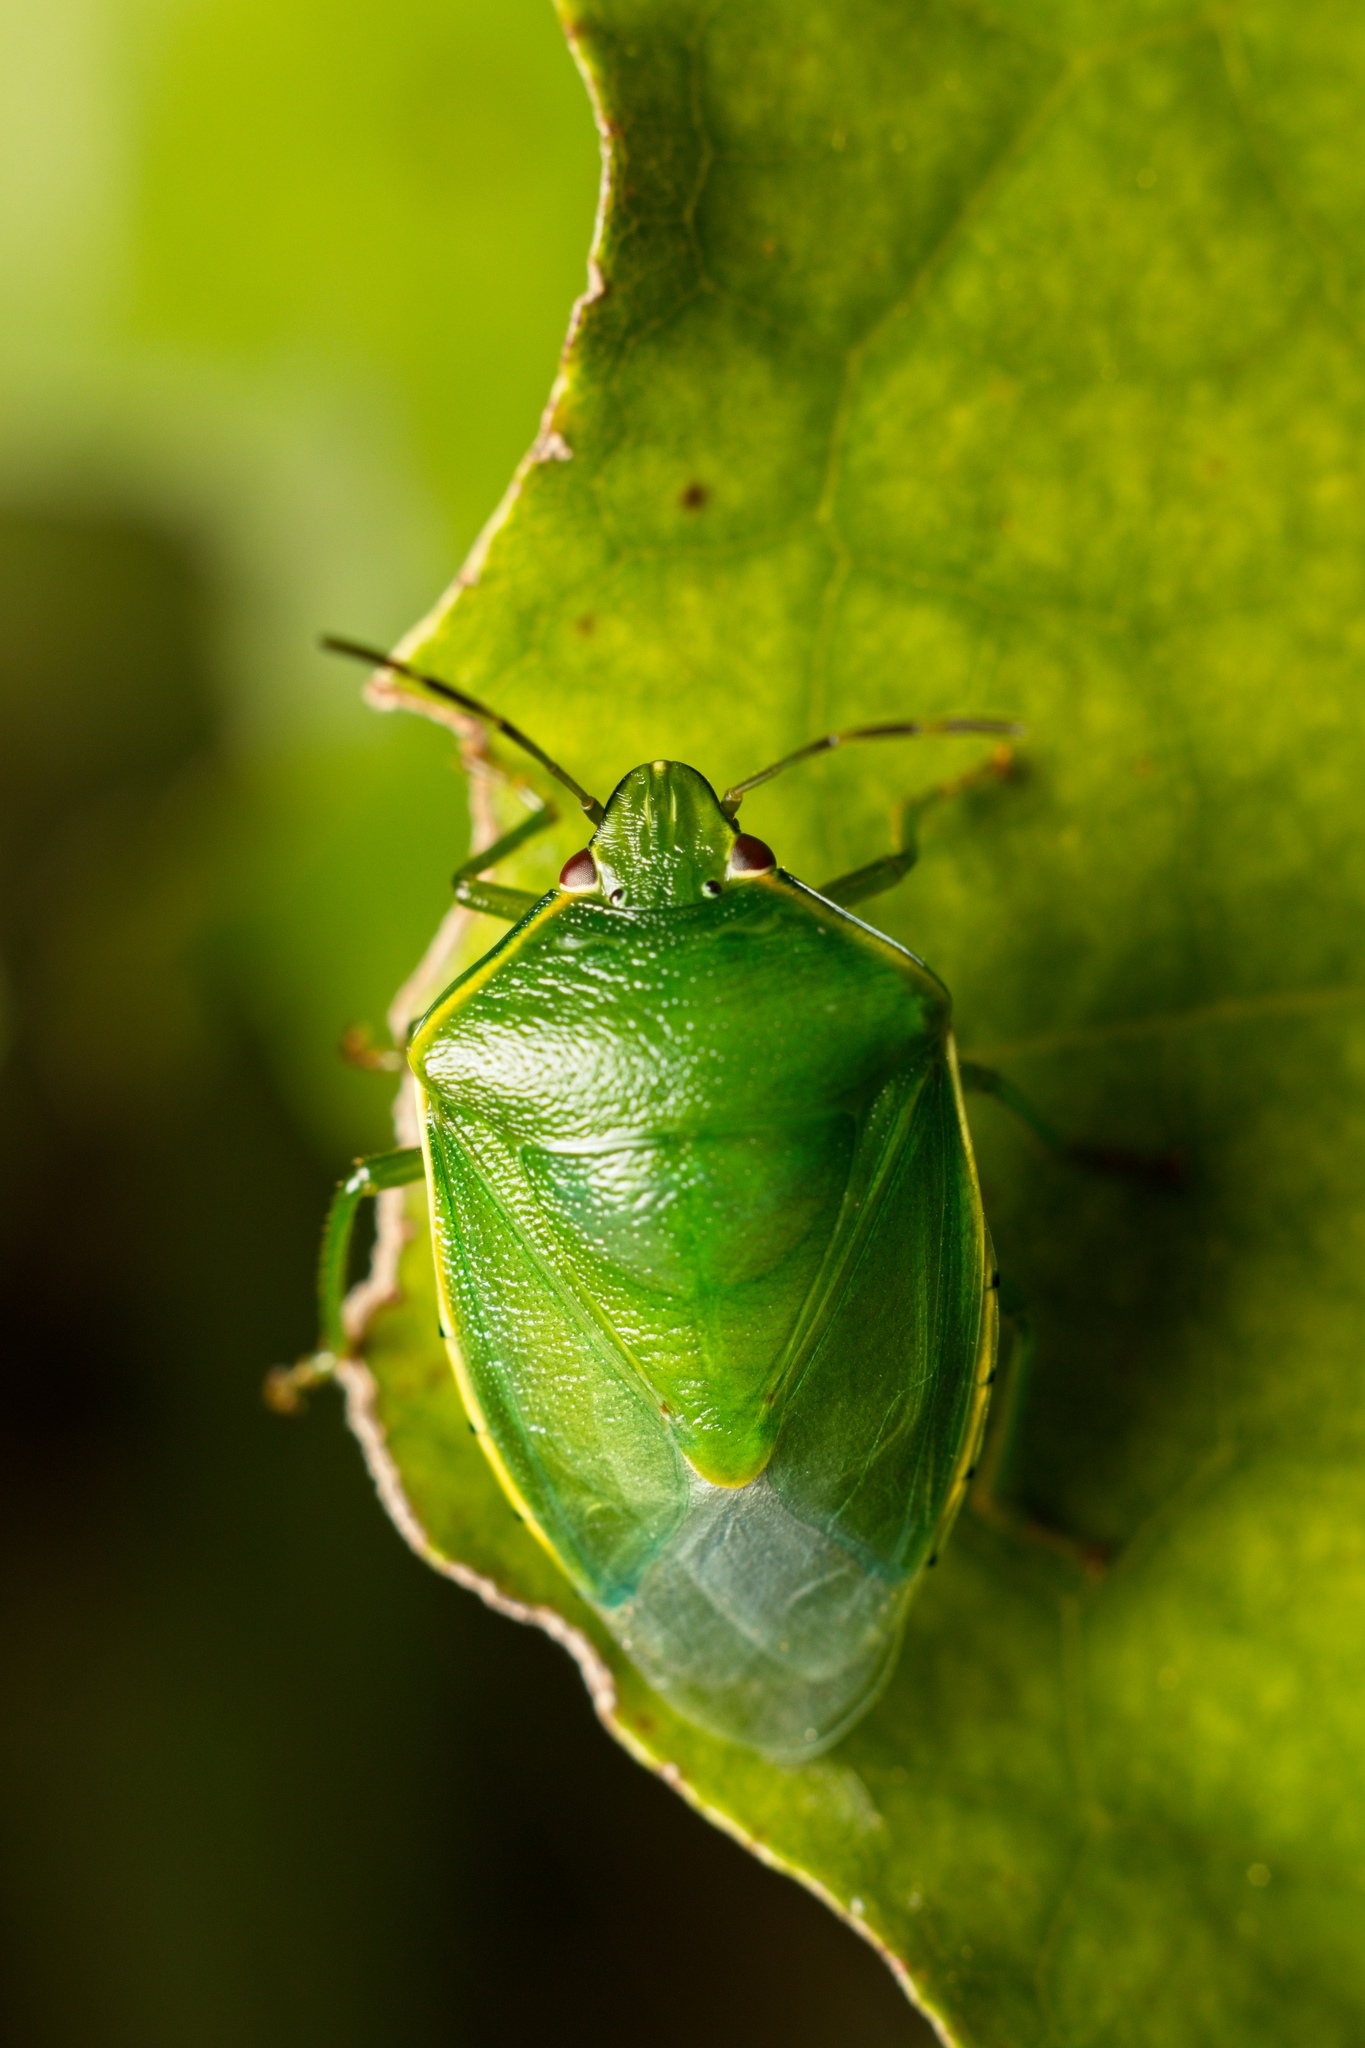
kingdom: Animalia
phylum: Arthropoda
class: Insecta
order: Hemiptera
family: Pentatomidae
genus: Glaucias
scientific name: Glaucias amyota
